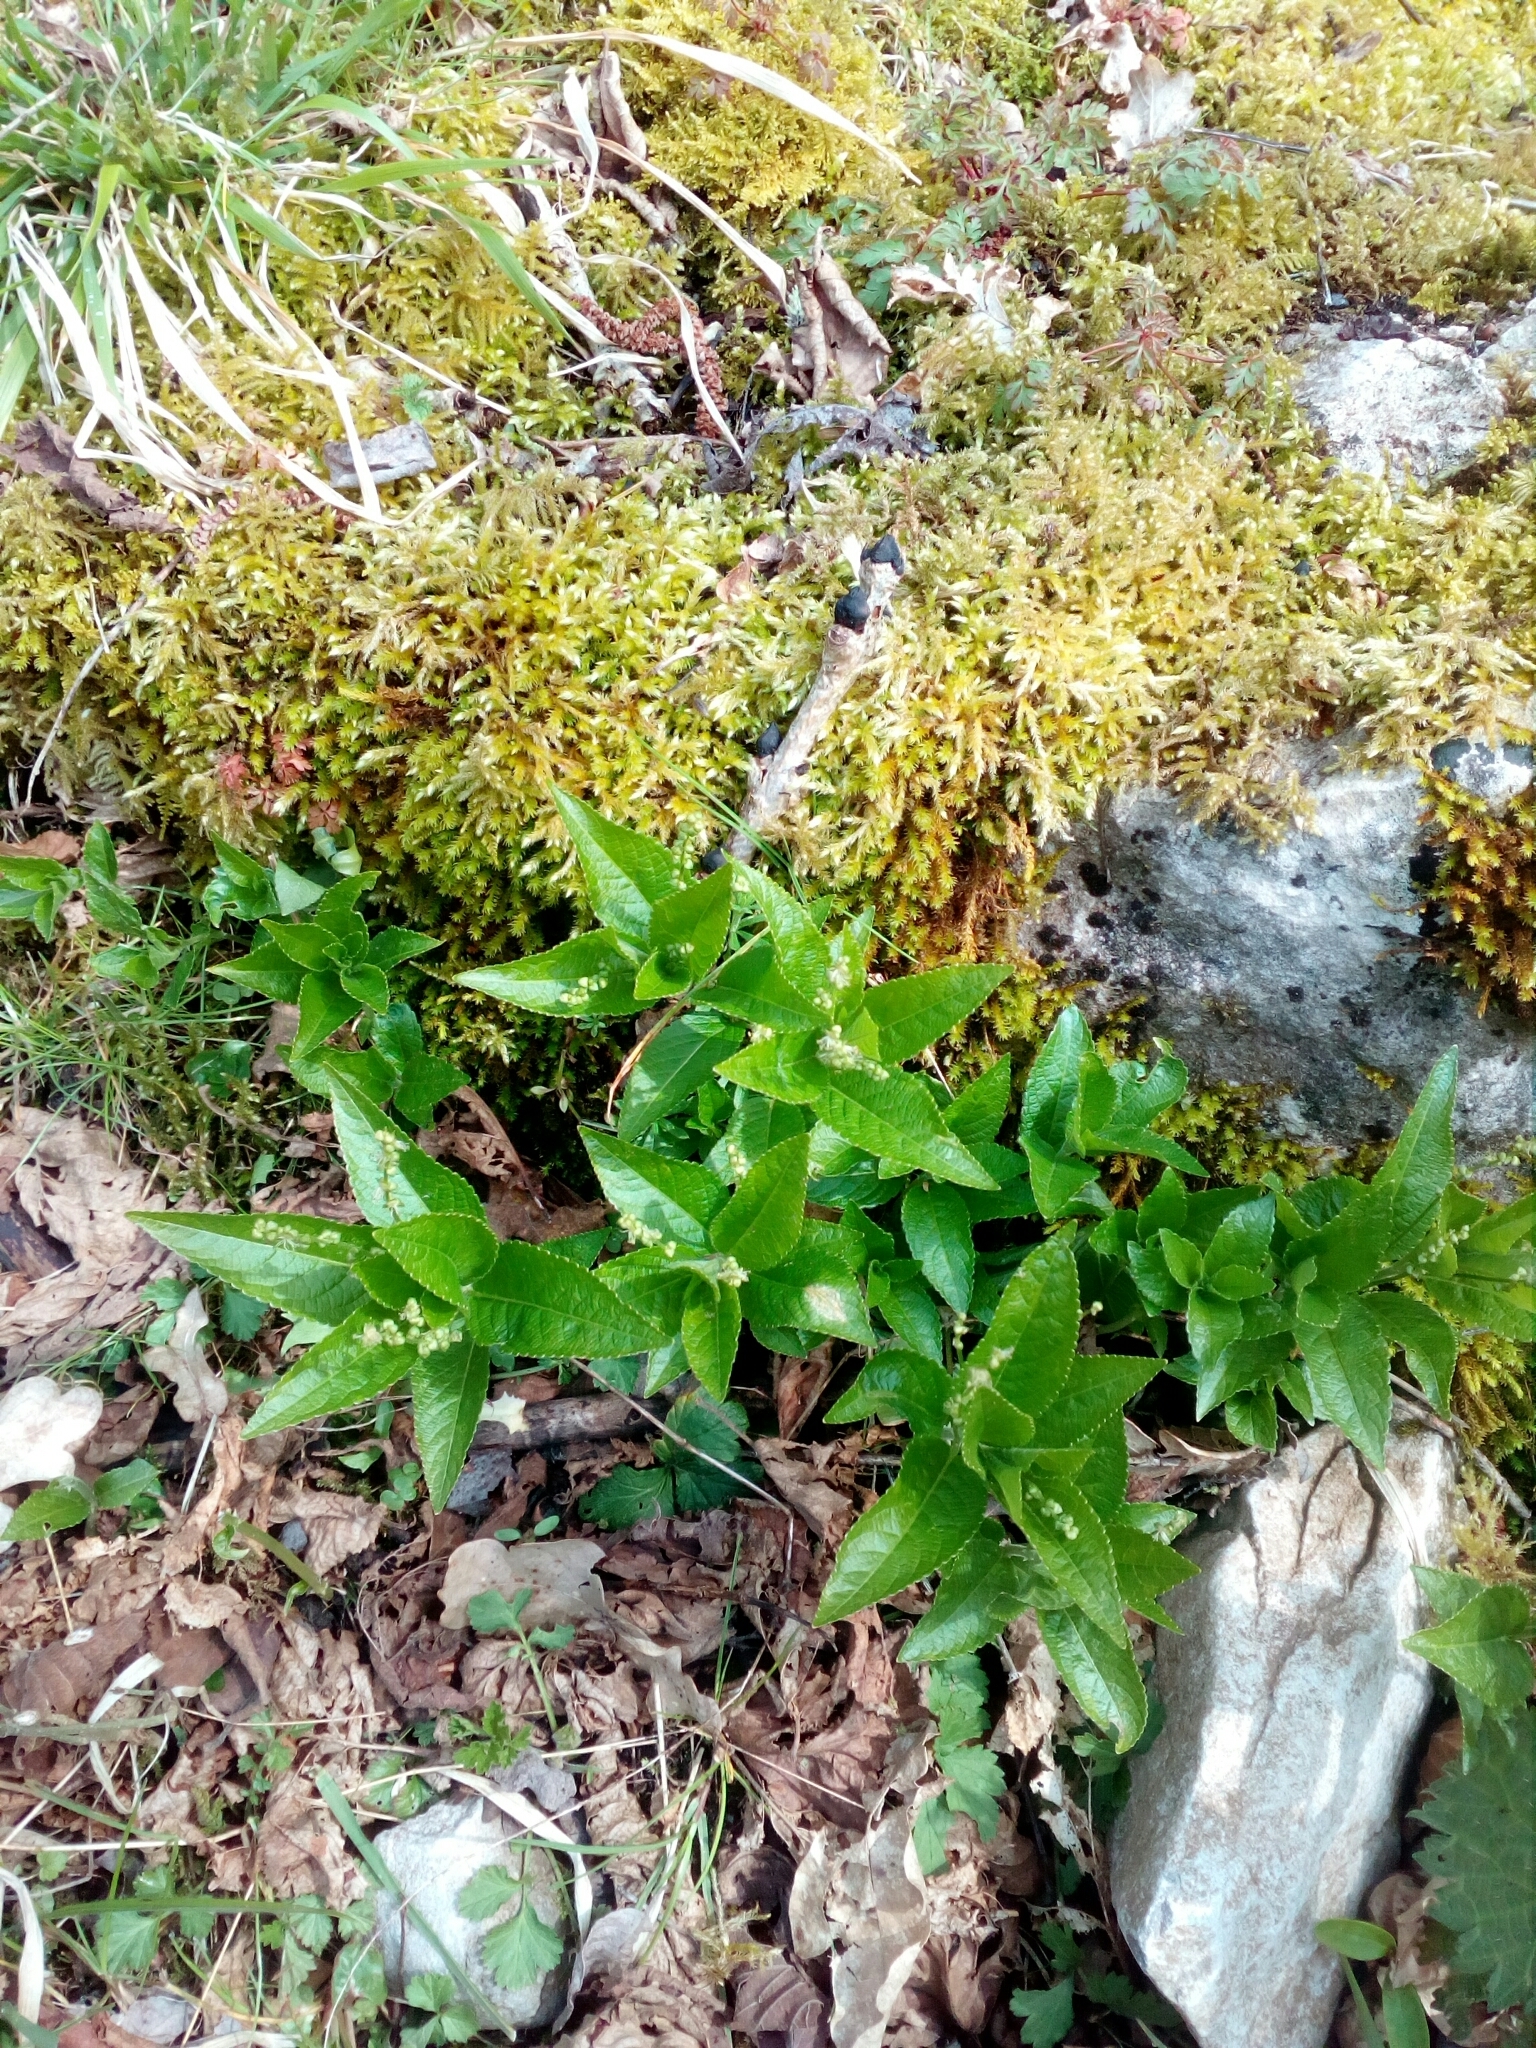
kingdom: Plantae
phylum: Tracheophyta
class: Magnoliopsida
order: Malpighiales
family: Euphorbiaceae
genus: Mercurialis
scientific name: Mercurialis perennis
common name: Dog mercury
